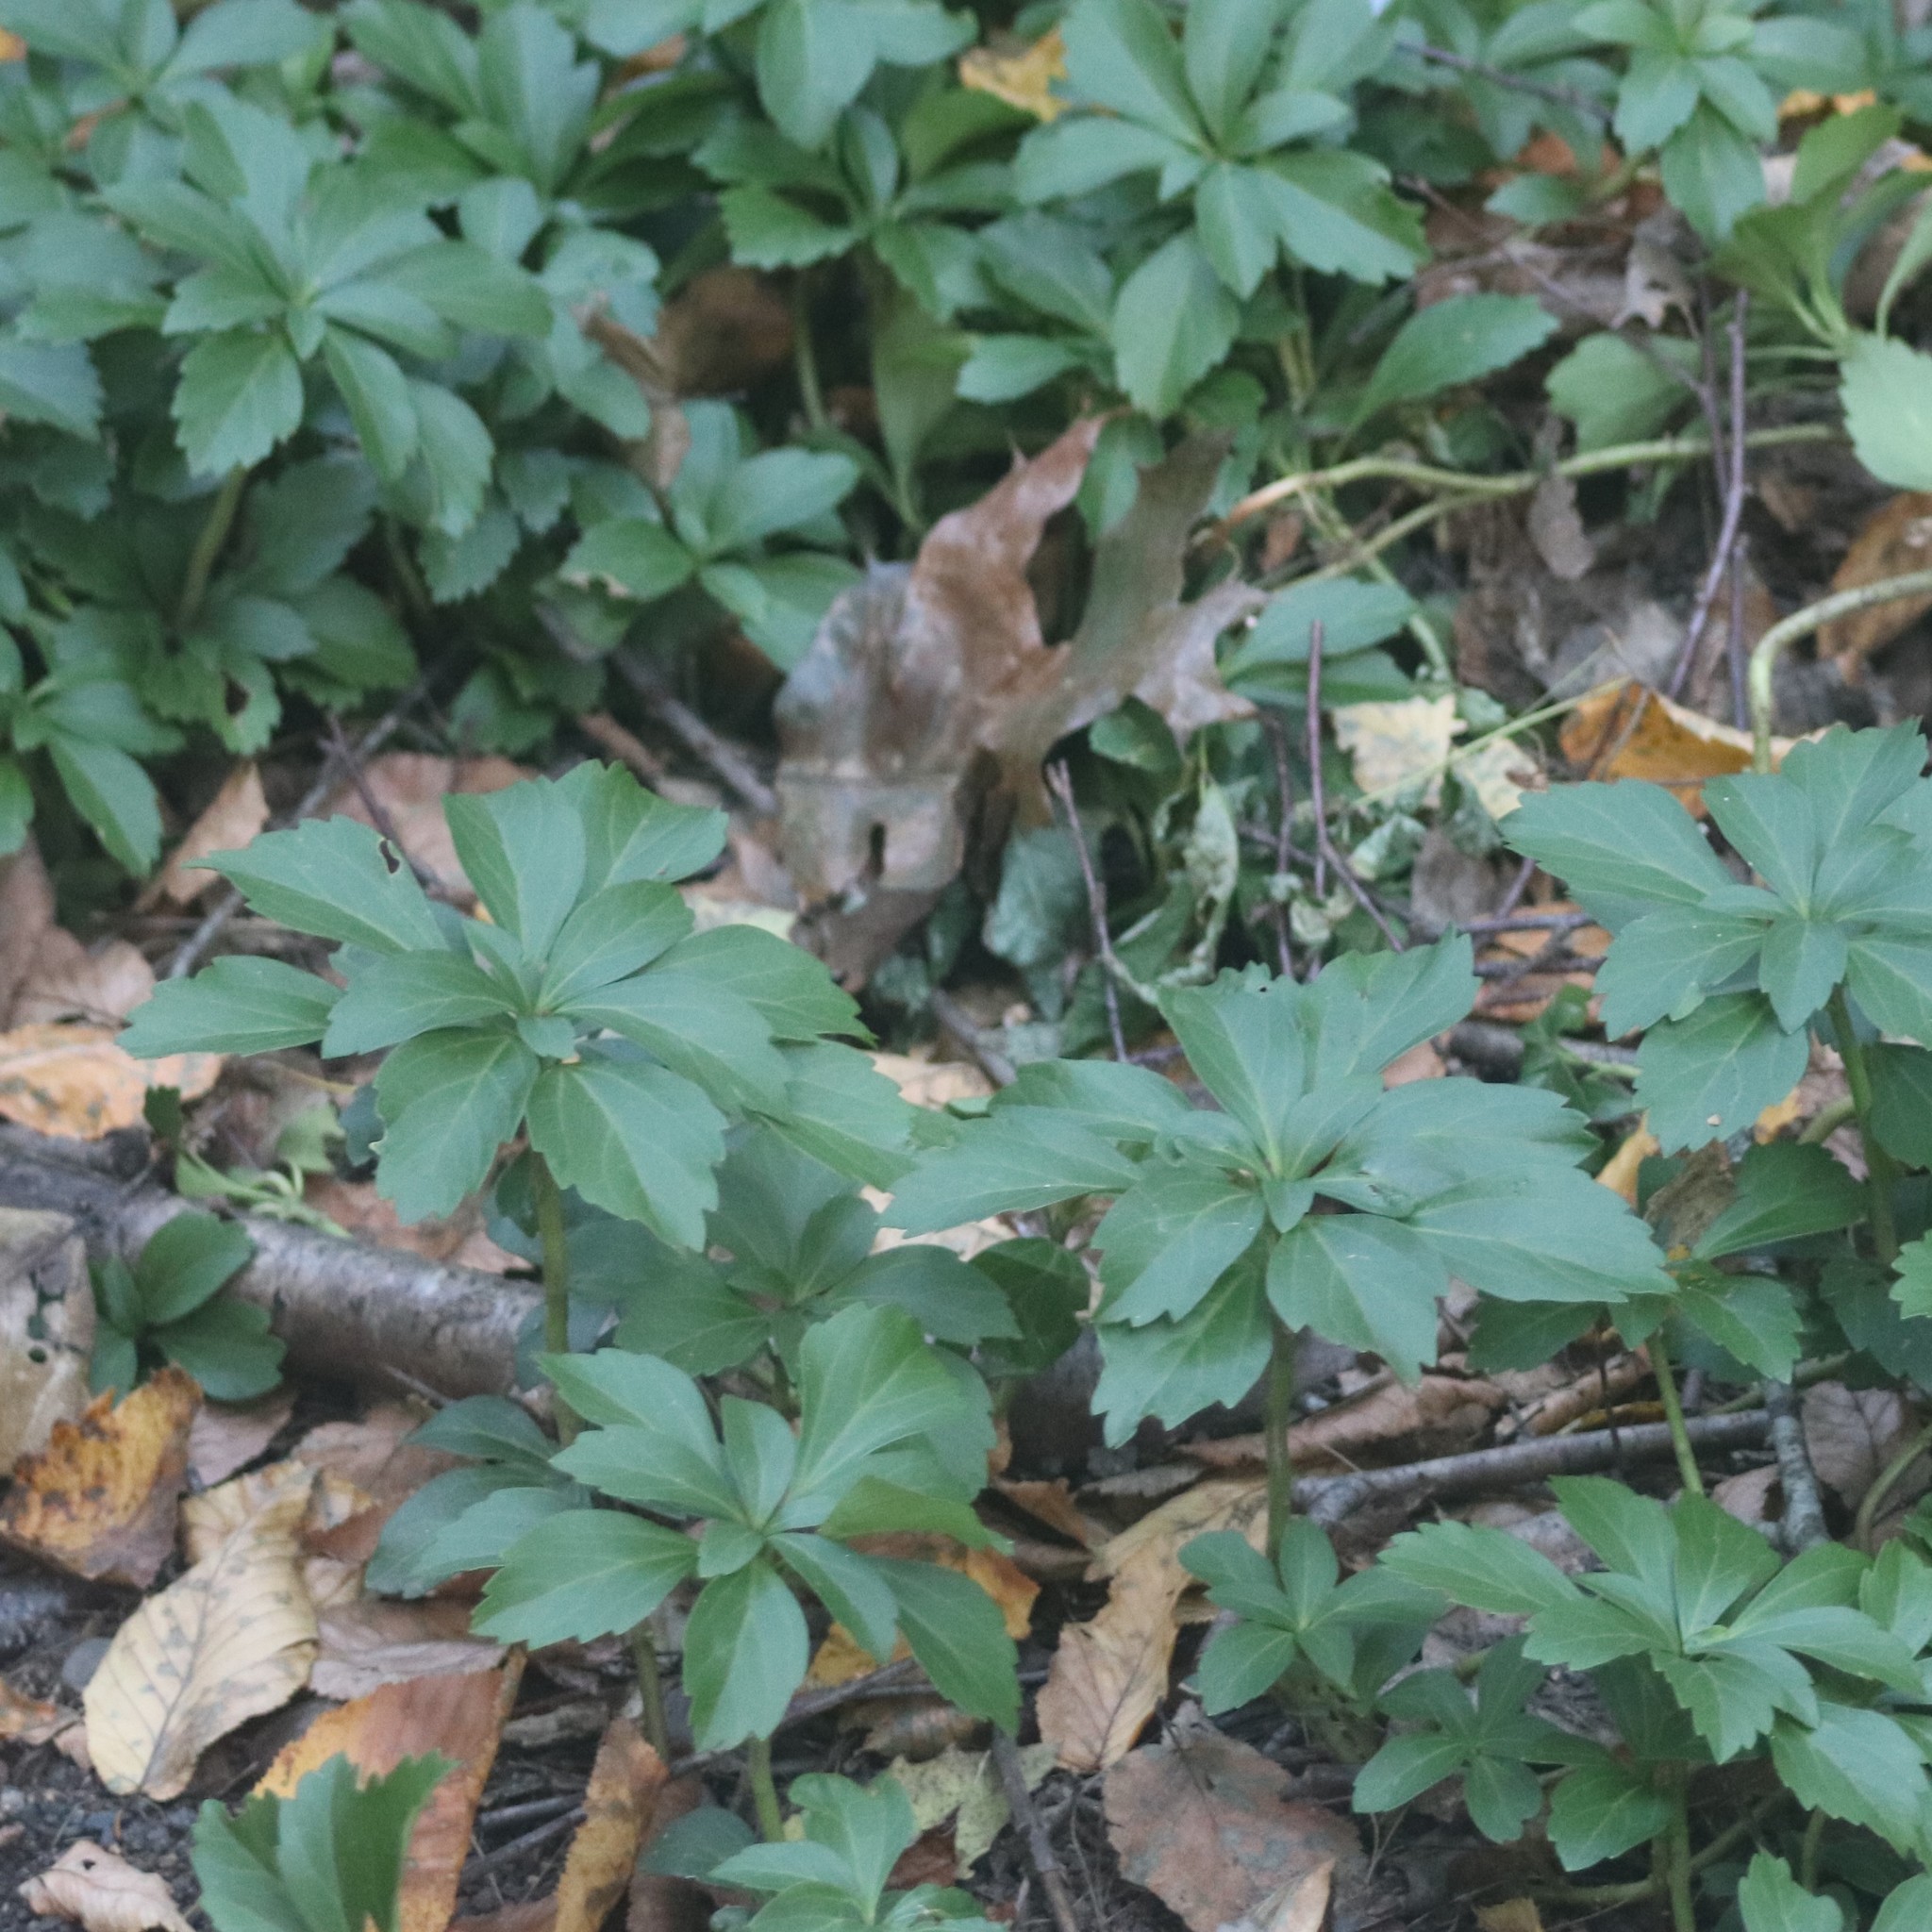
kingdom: Plantae
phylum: Tracheophyta
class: Magnoliopsida
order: Buxales
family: Buxaceae
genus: Pachysandra
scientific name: Pachysandra terminalis
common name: Japanese pachysandra
